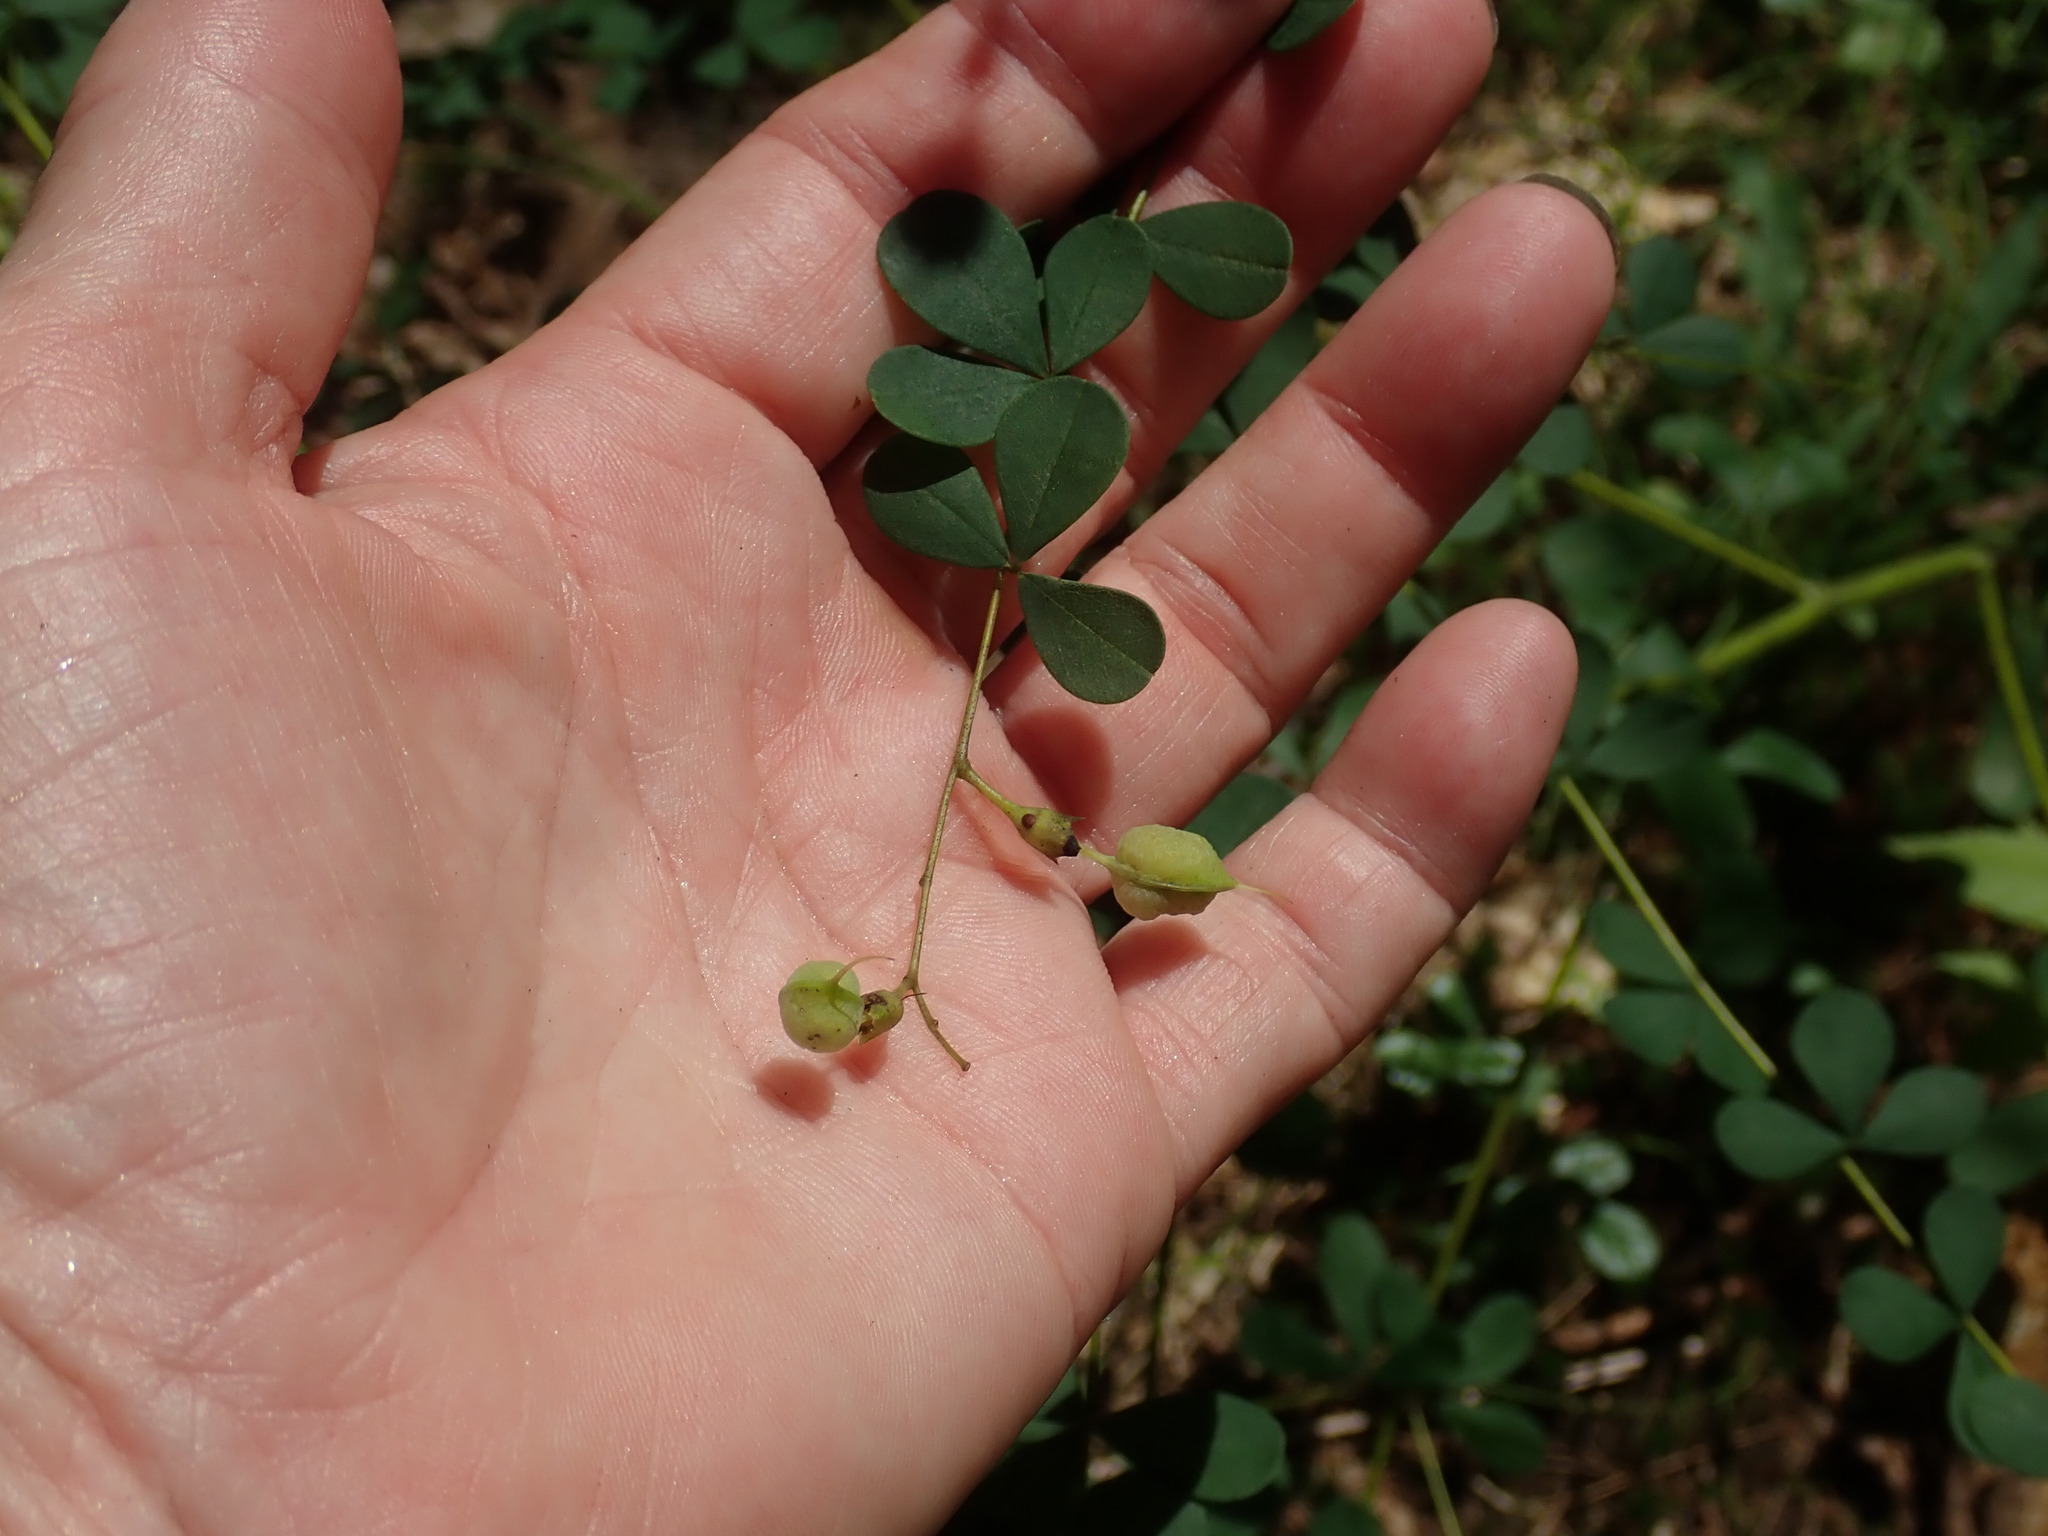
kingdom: Plantae
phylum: Tracheophyta
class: Magnoliopsida
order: Fabales
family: Fabaceae
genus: Baptisia
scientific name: Baptisia tinctoria
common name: Wild indigo
